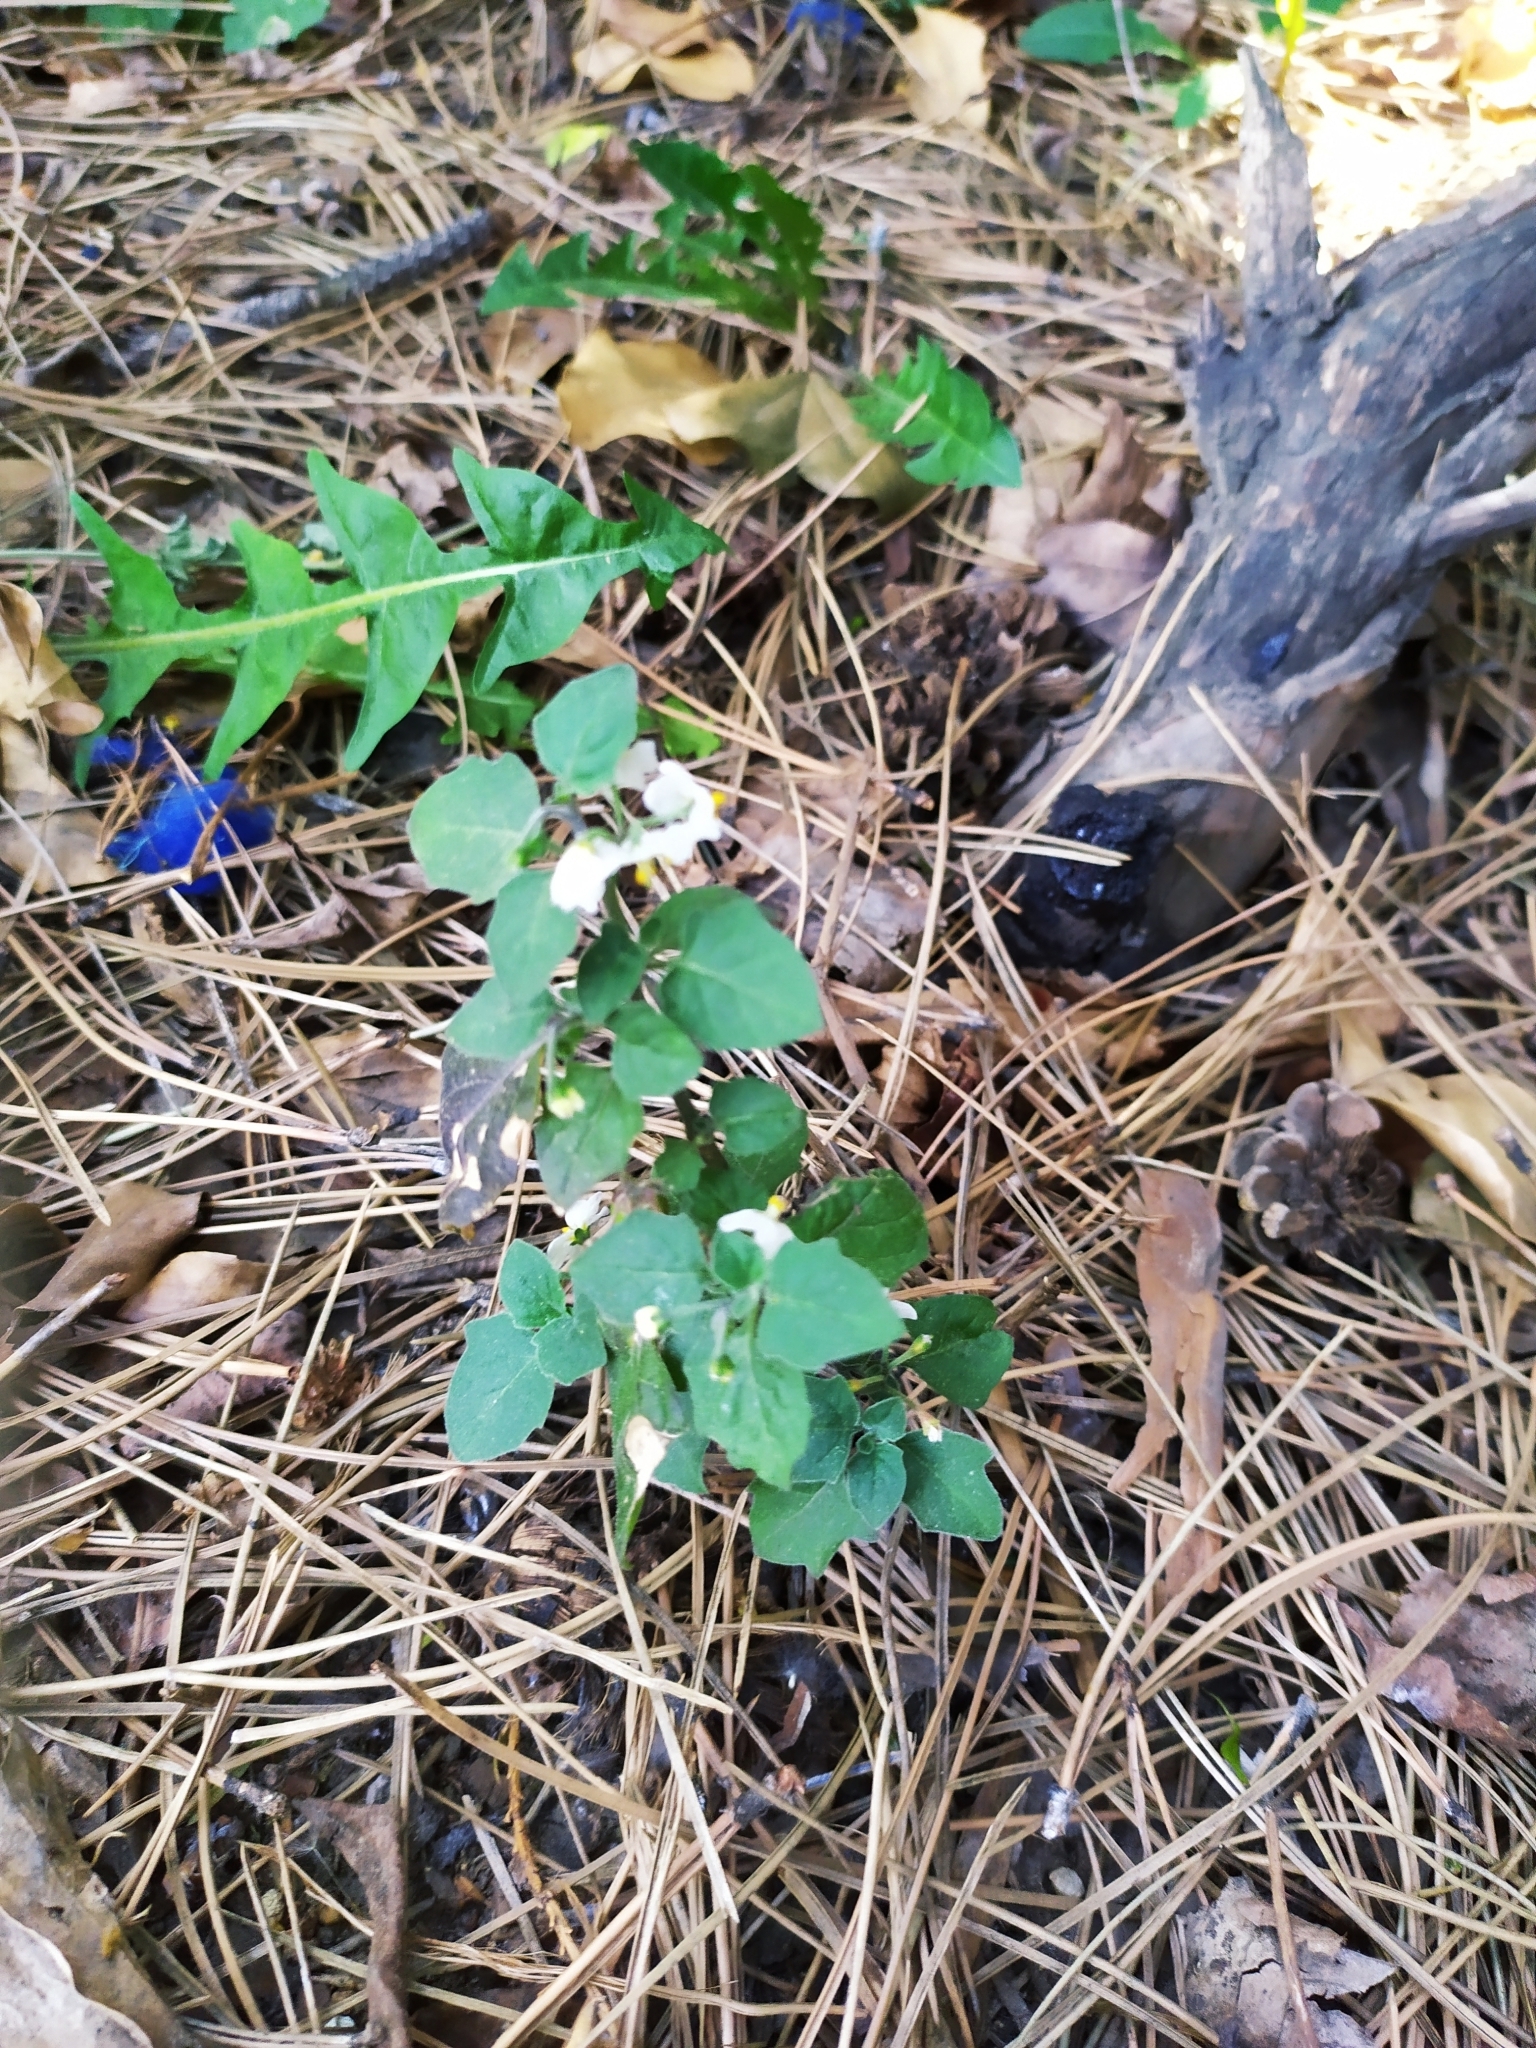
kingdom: Plantae
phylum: Tracheophyta
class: Magnoliopsida
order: Solanales
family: Solanaceae
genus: Solanum
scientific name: Solanum nigrum
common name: Black nightshade
